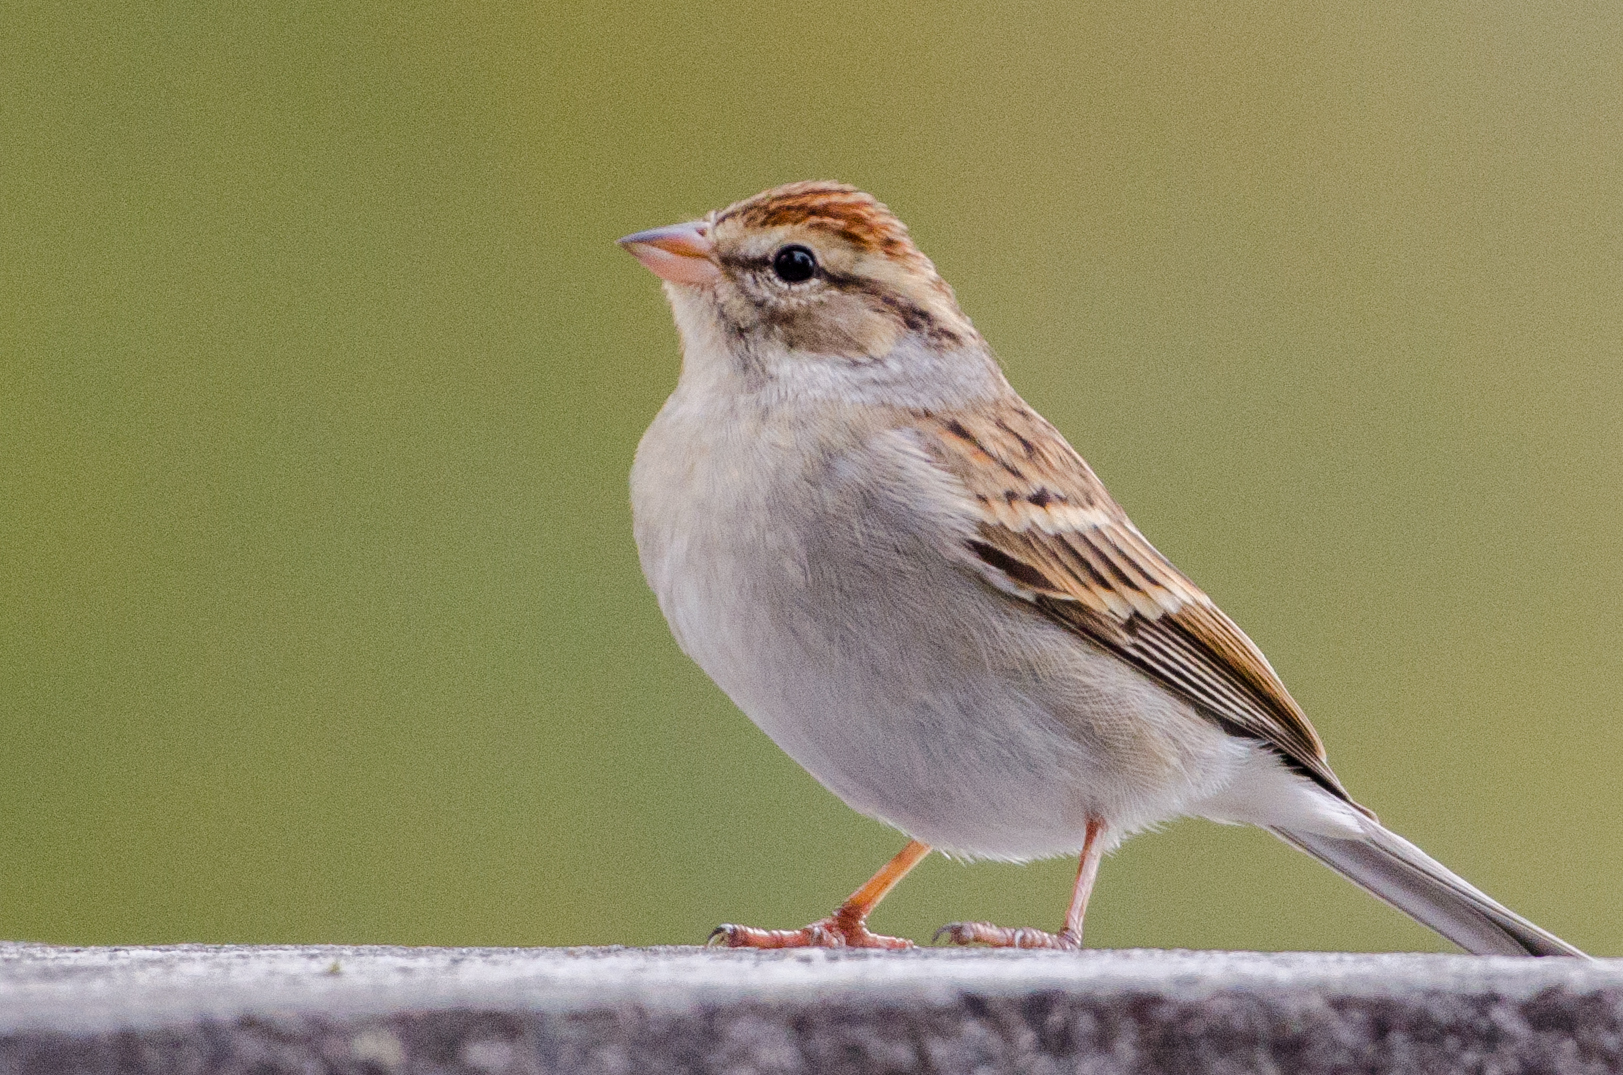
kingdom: Animalia
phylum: Chordata
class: Aves
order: Passeriformes
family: Passerellidae
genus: Spizella
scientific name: Spizella passerina
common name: Chipping sparrow
